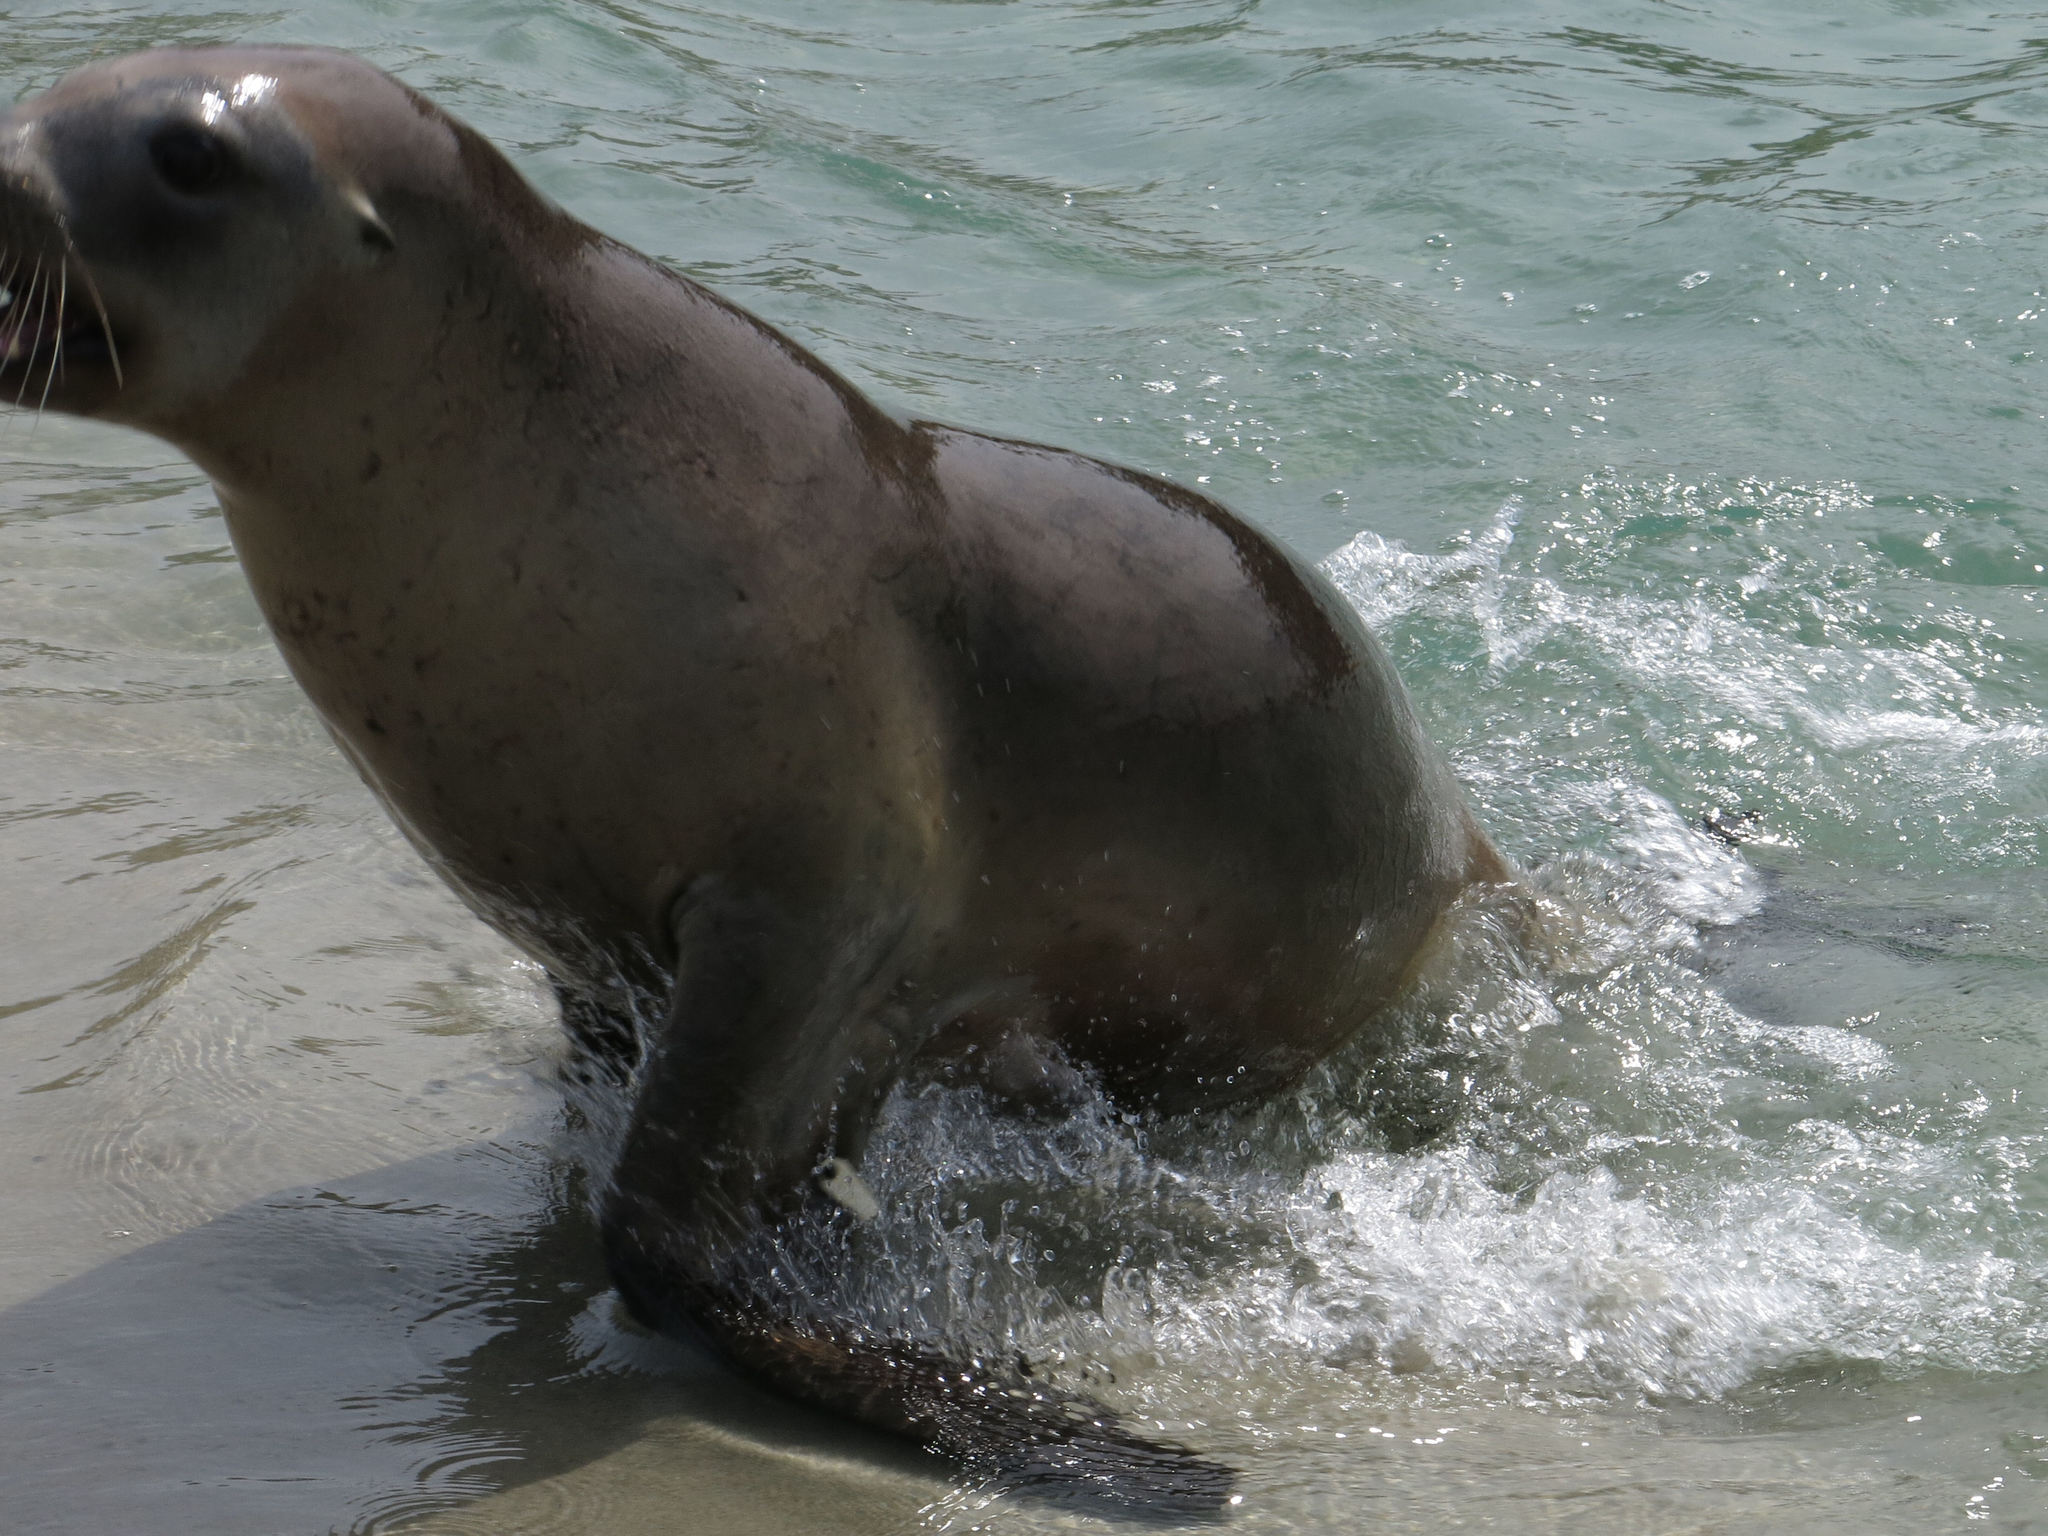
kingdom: Animalia
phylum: Chordata
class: Mammalia
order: Carnivora
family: Otariidae
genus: Phocarctos
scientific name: Phocarctos hookeri
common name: New zealand sea lion
